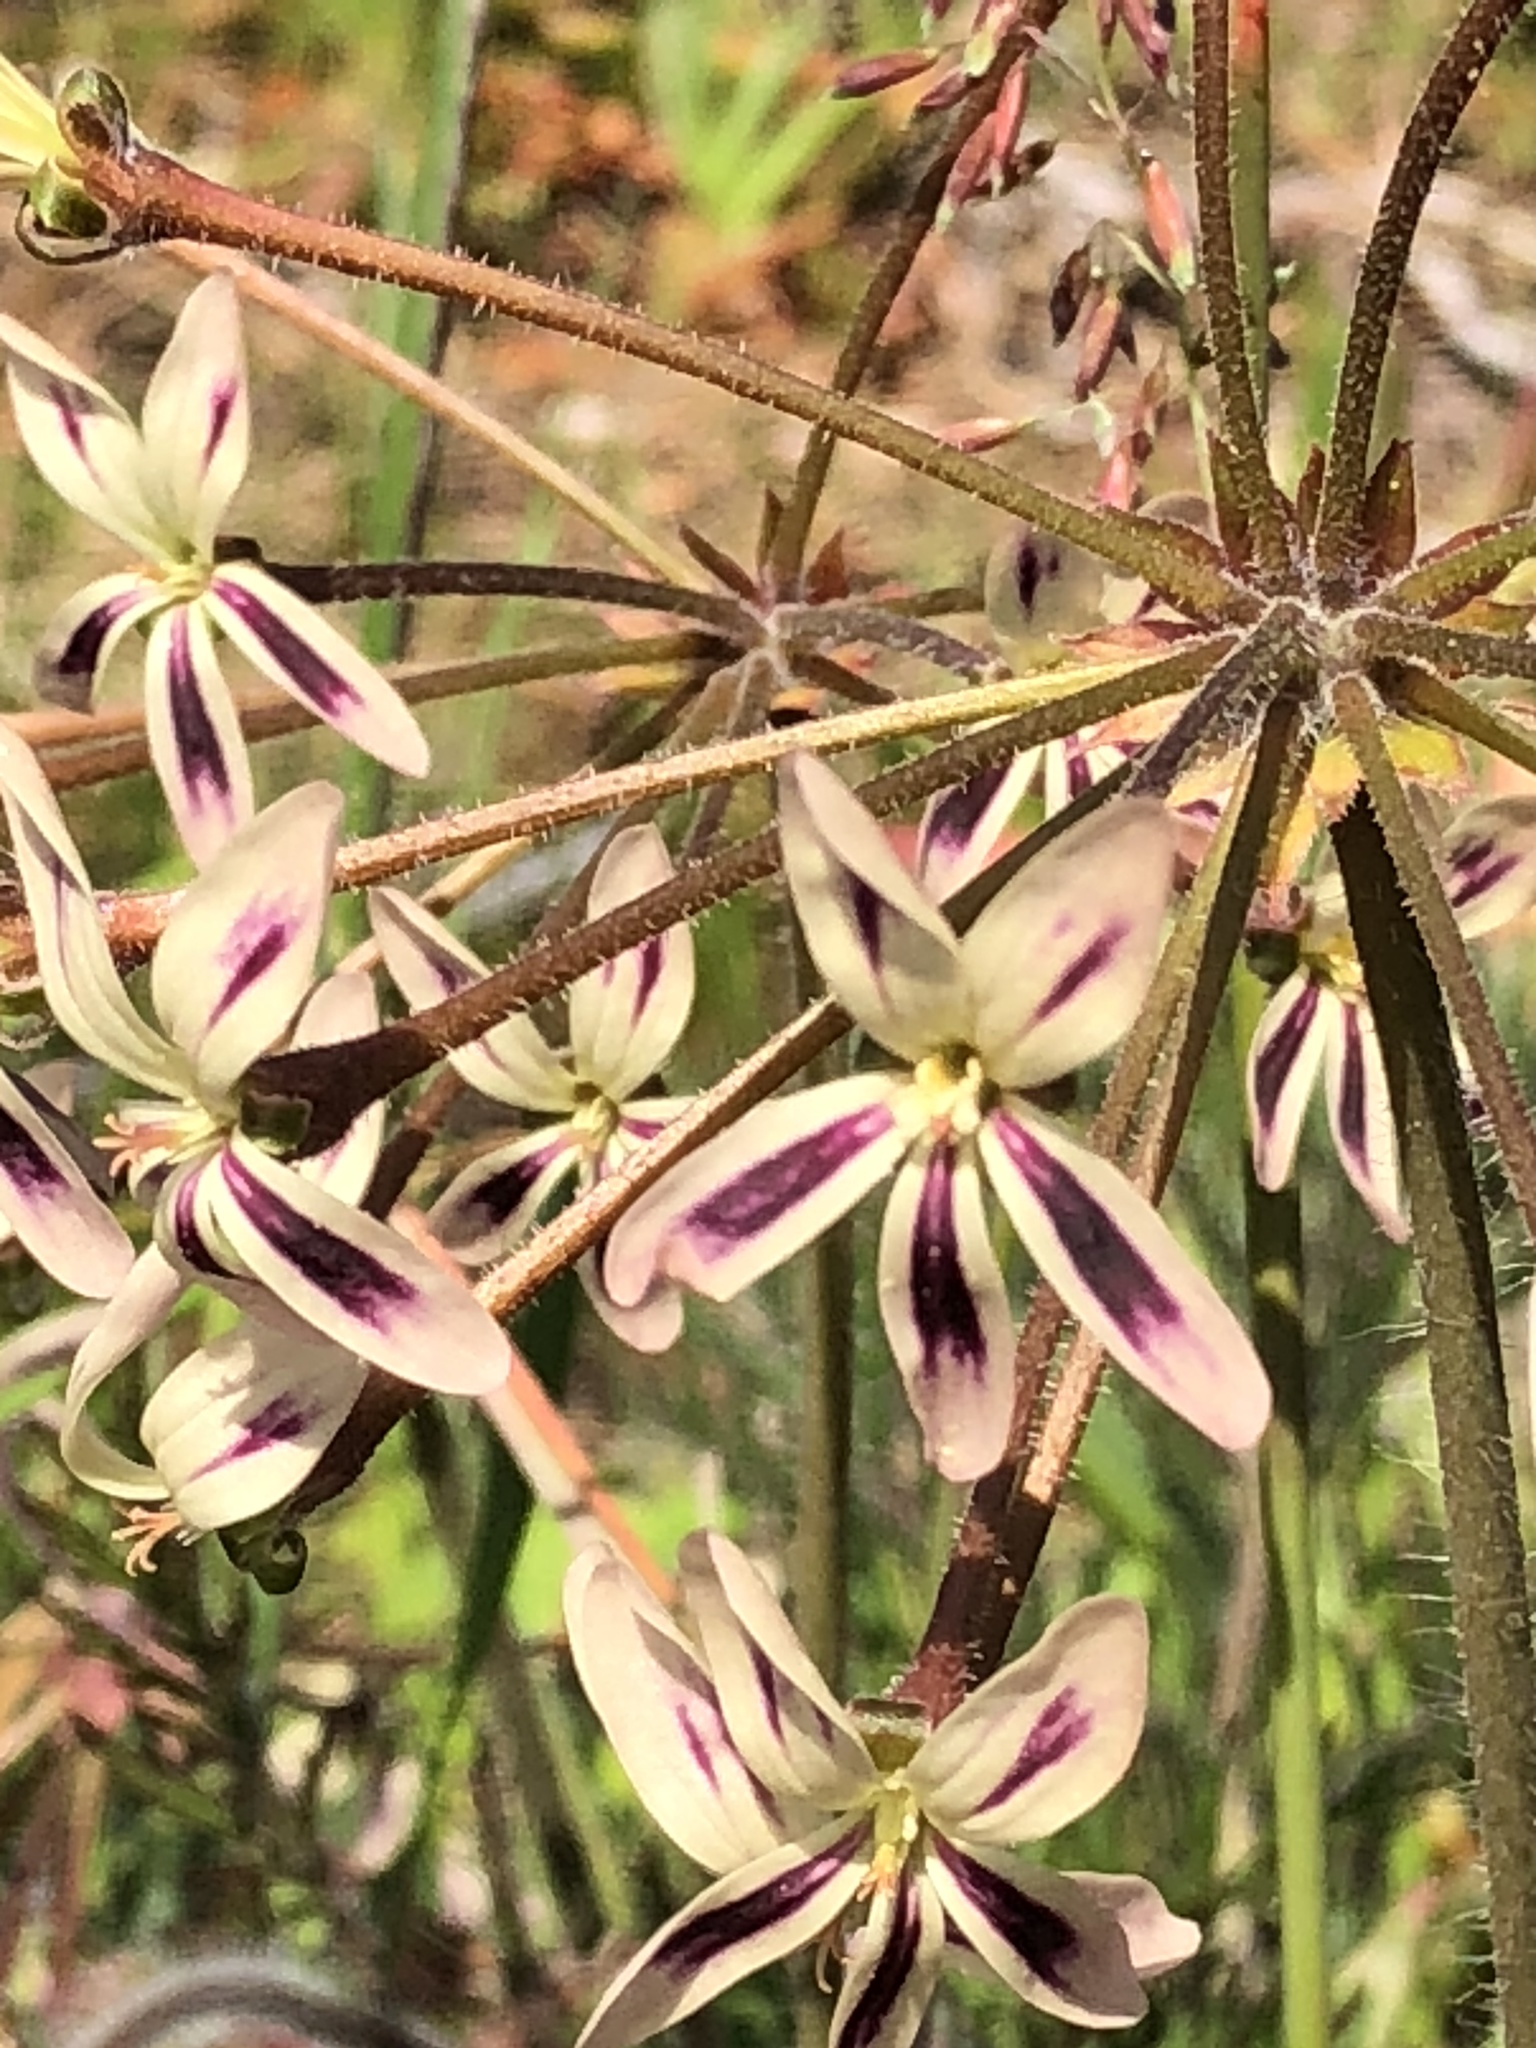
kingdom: Plantae
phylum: Tracheophyta
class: Magnoliopsida
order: Geraniales
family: Geraniaceae
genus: Pelargonium
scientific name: Pelargonium triste
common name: Night-scent pelargonium
